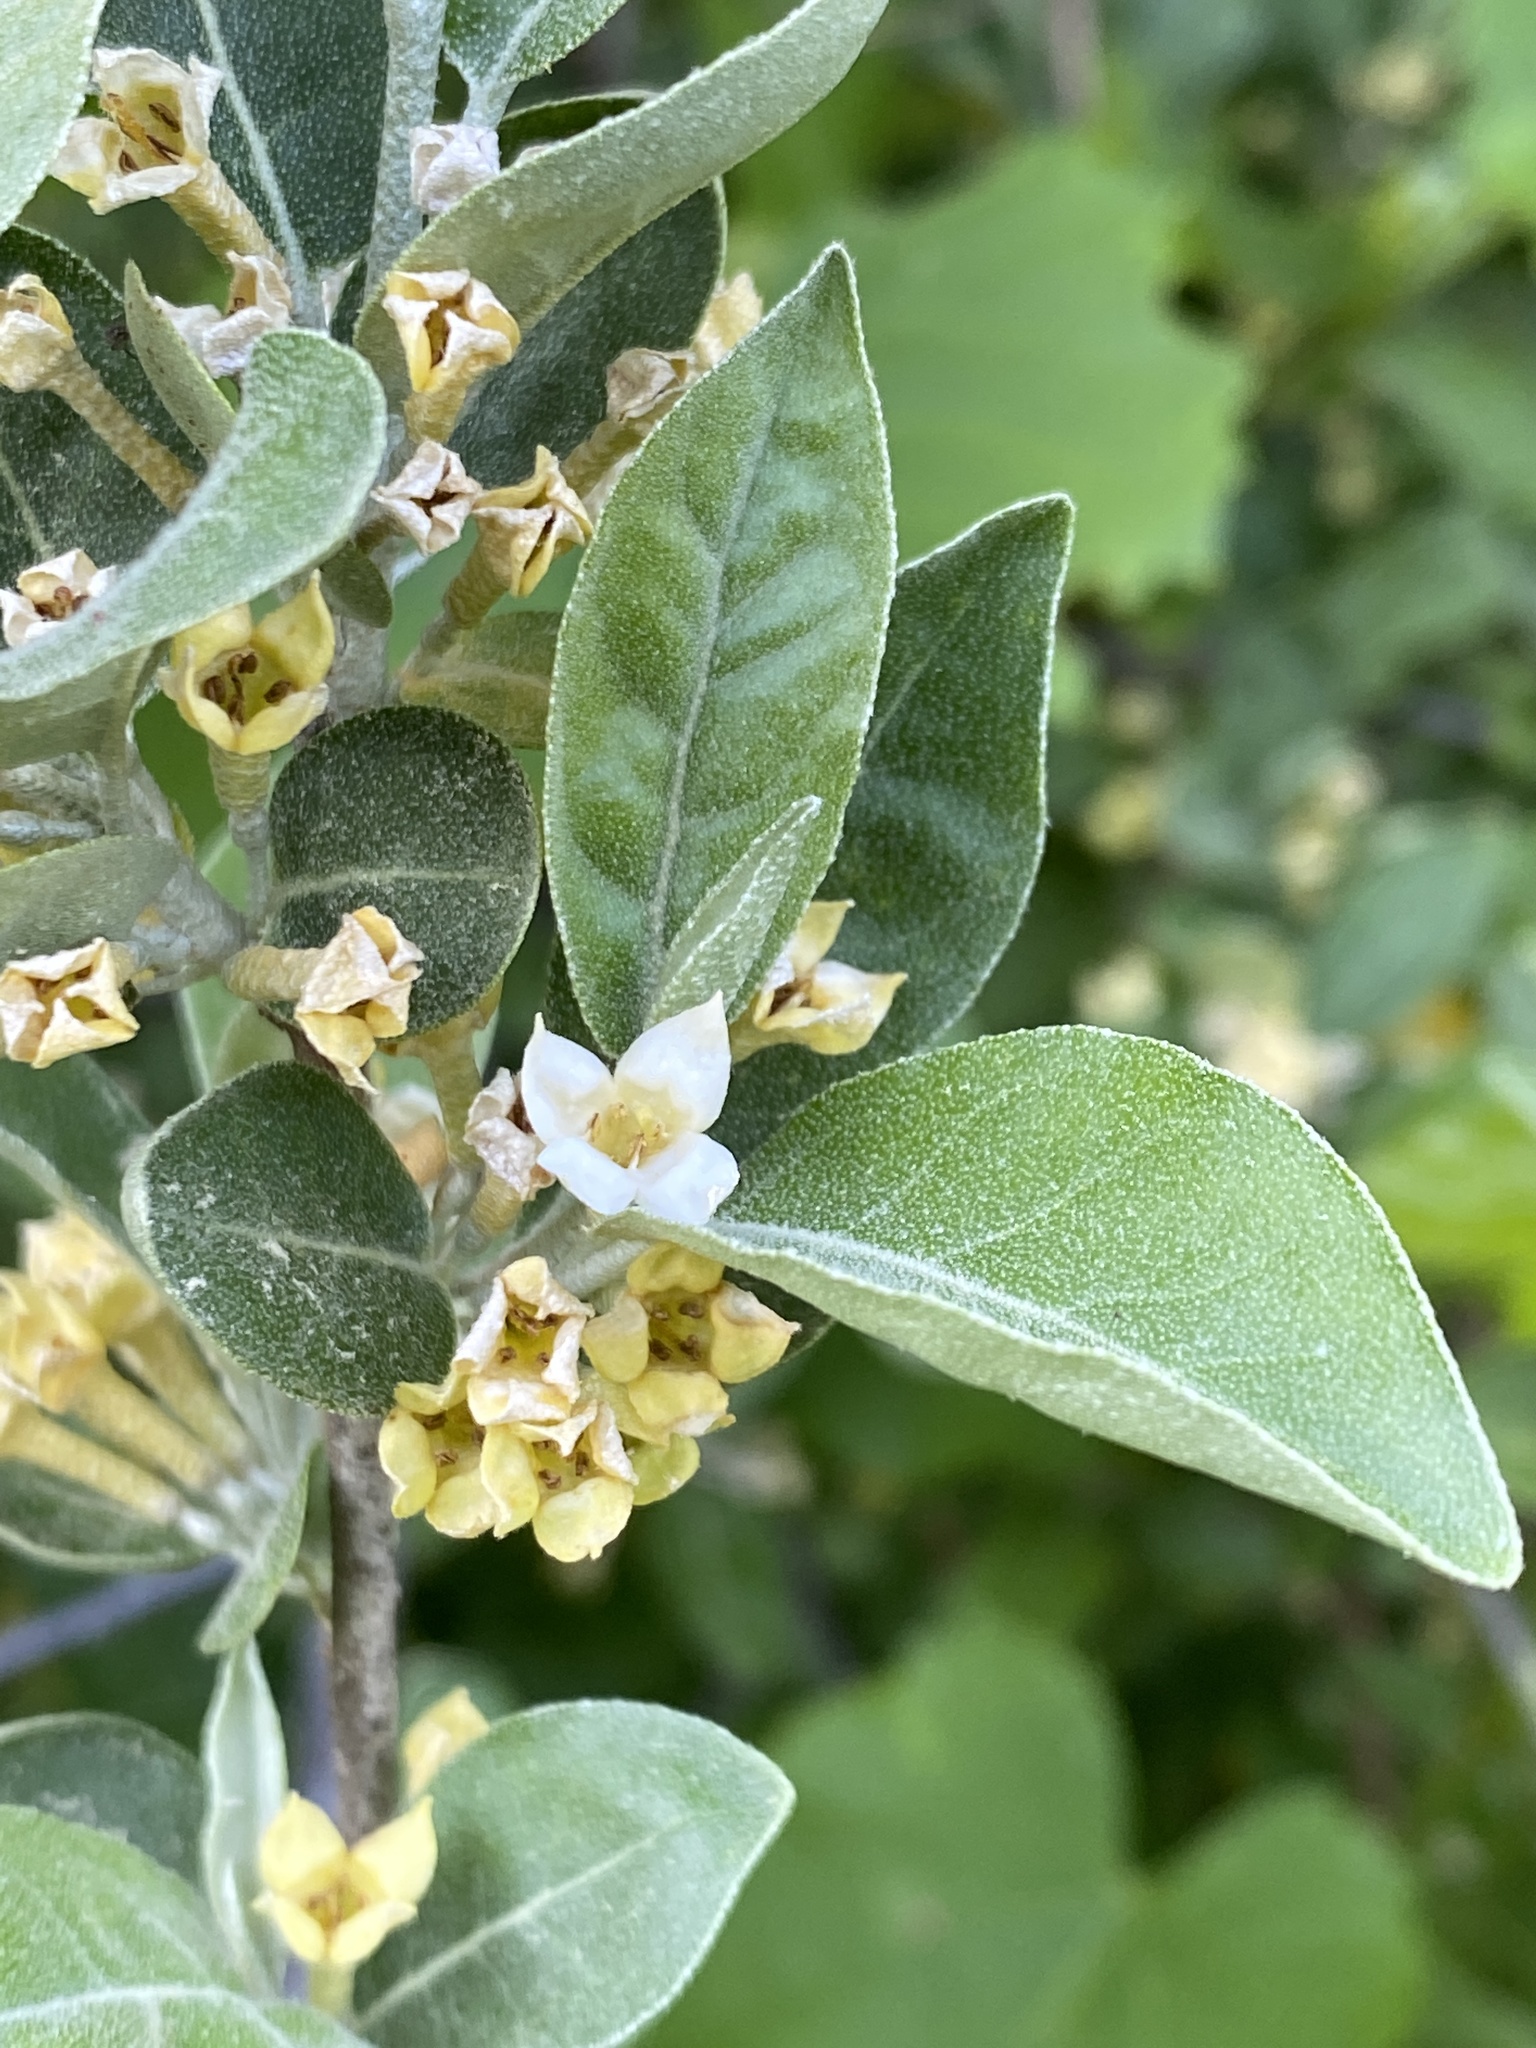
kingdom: Plantae
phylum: Tracheophyta
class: Magnoliopsida
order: Rosales
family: Elaeagnaceae
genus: Elaeagnus
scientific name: Elaeagnus umbellata
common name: Autumn olive
